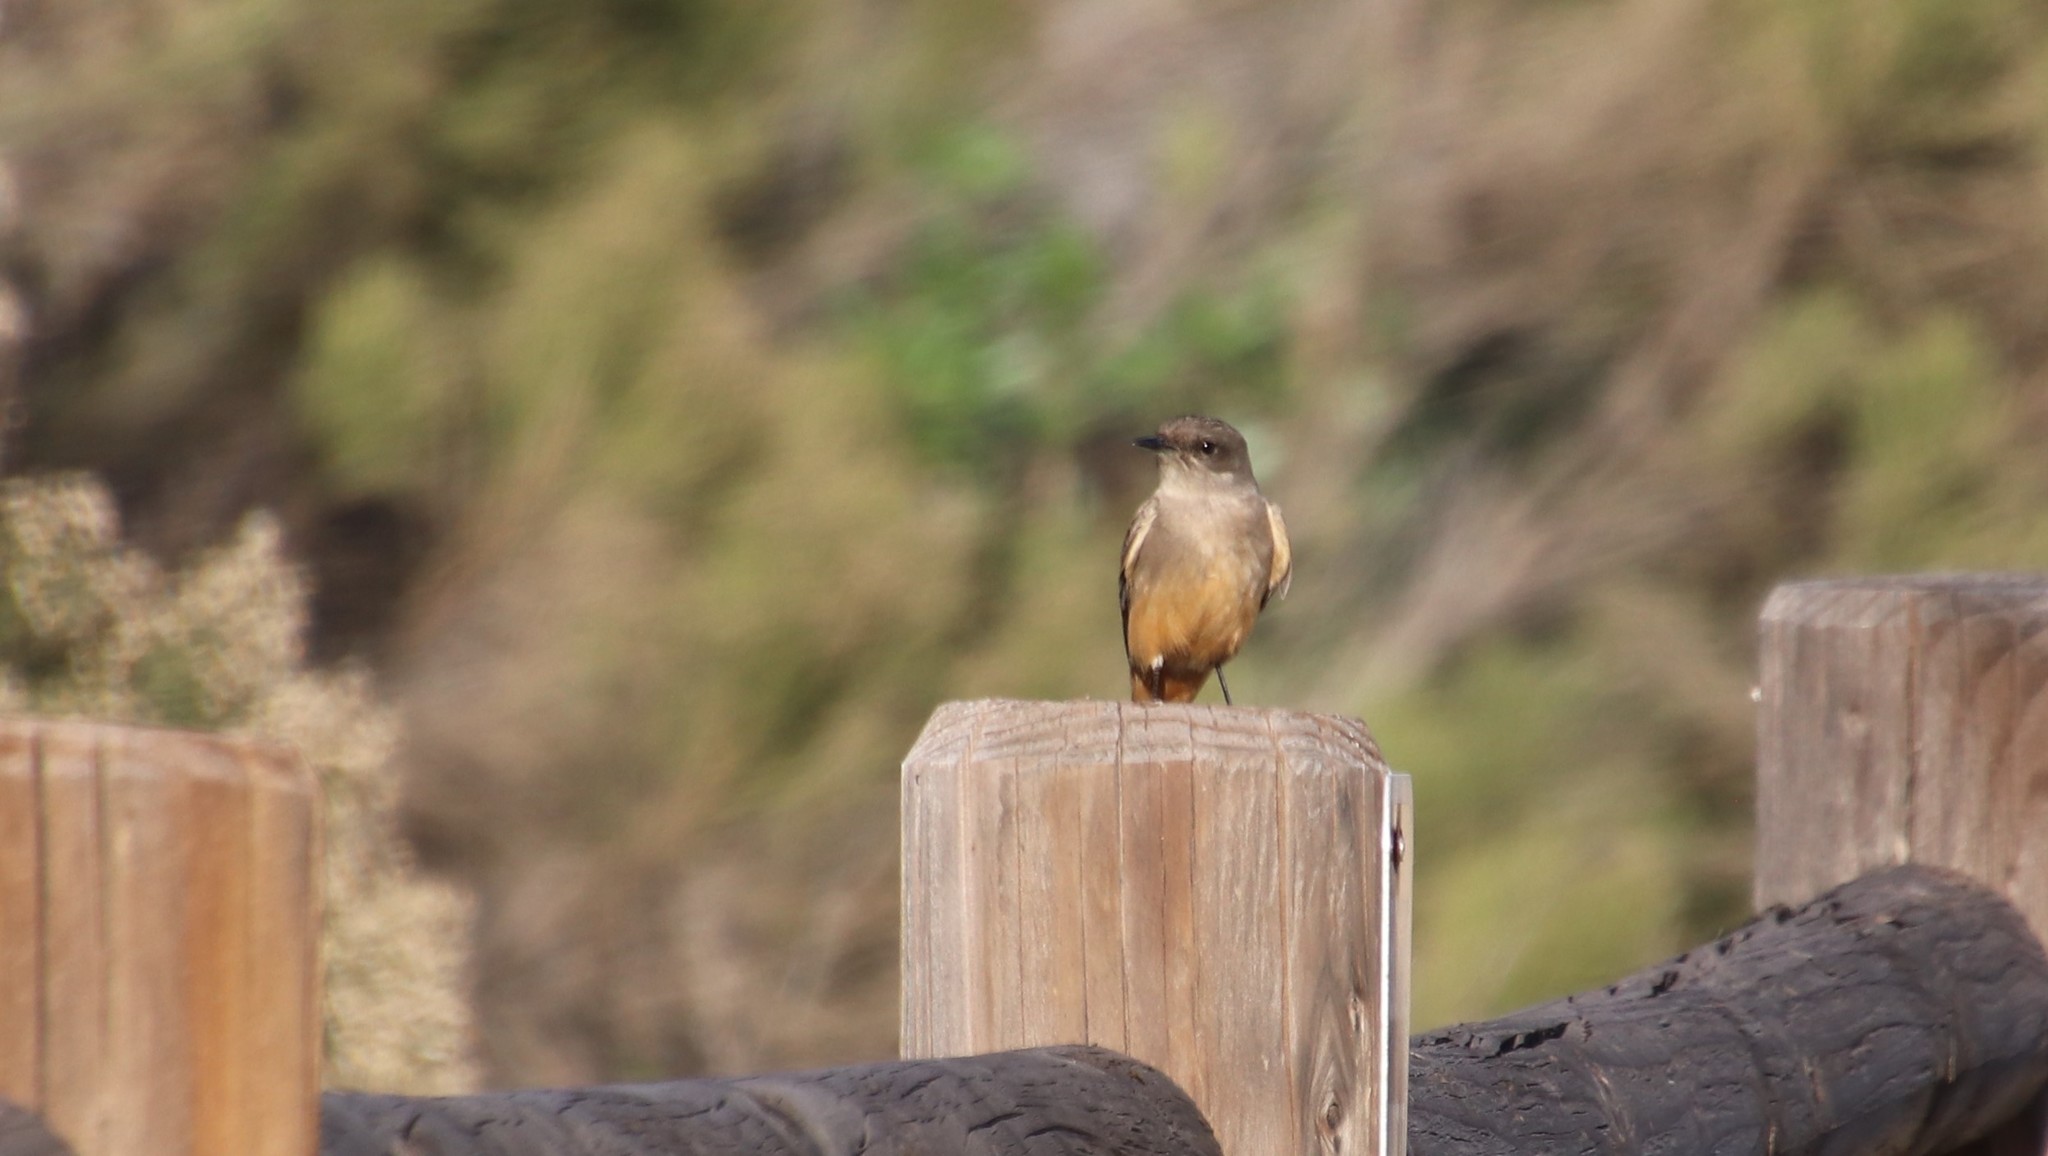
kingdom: Animalia
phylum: Chordata
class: Aves
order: Passeriformes
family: Tyrannidae
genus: Sayornis
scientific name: Sayornis saya
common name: Say's phoebe
